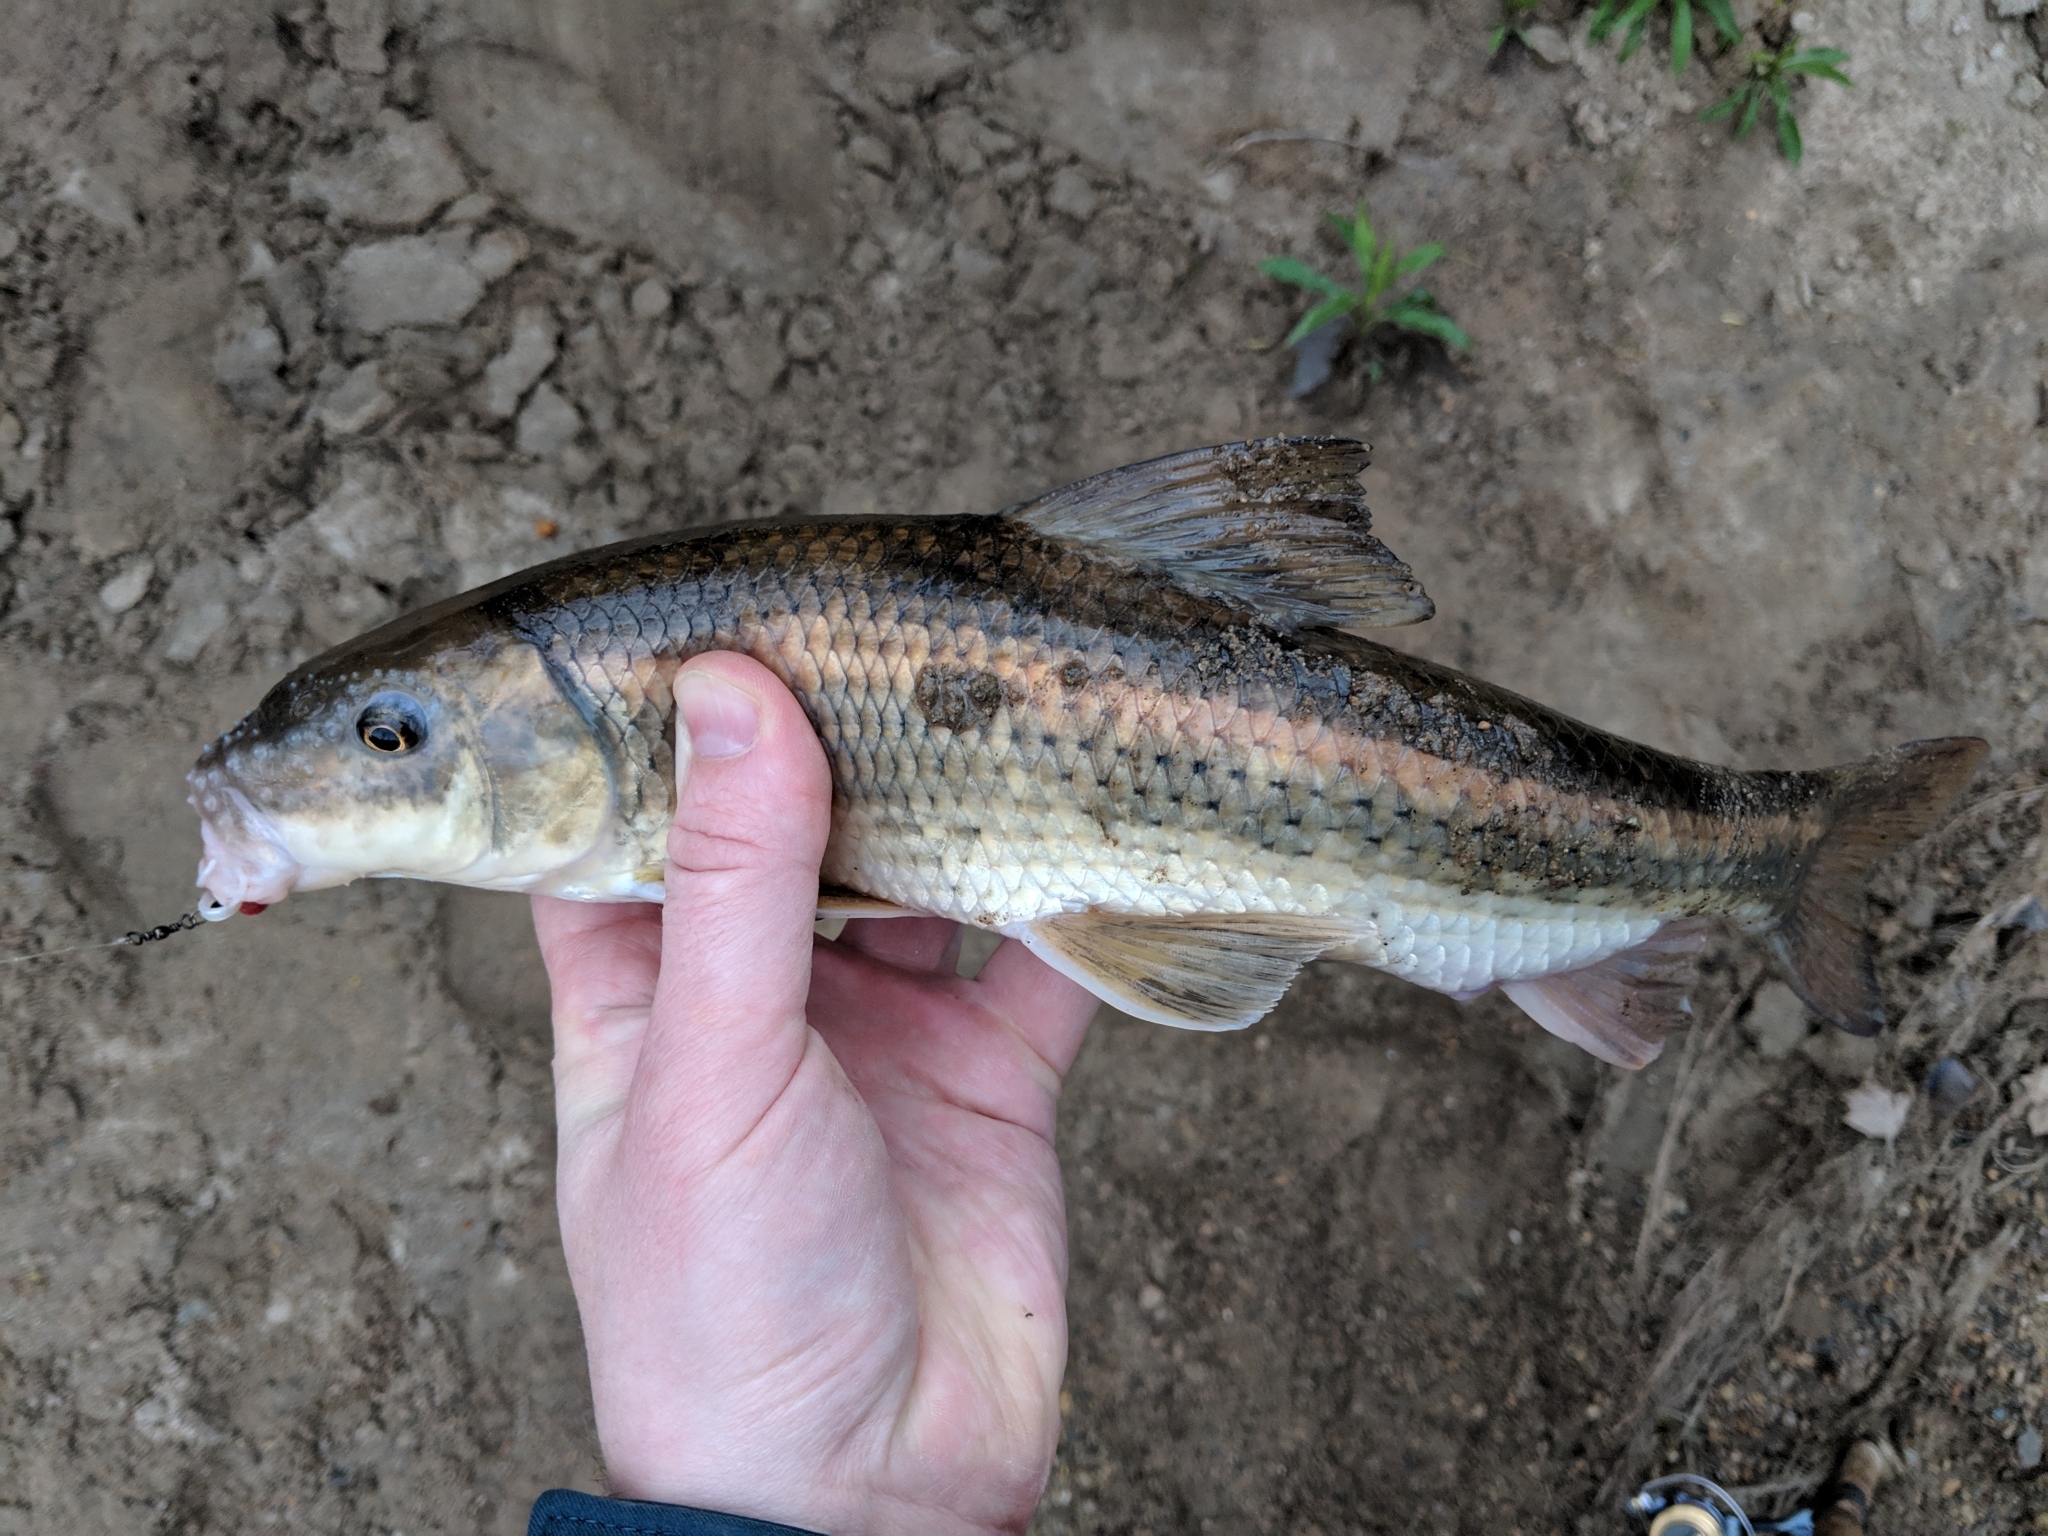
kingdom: Animalia
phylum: Chordata
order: Cypriniformes
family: Catostomidae
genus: Minytrema
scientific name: Minytrema melanops
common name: Spotted sucker
